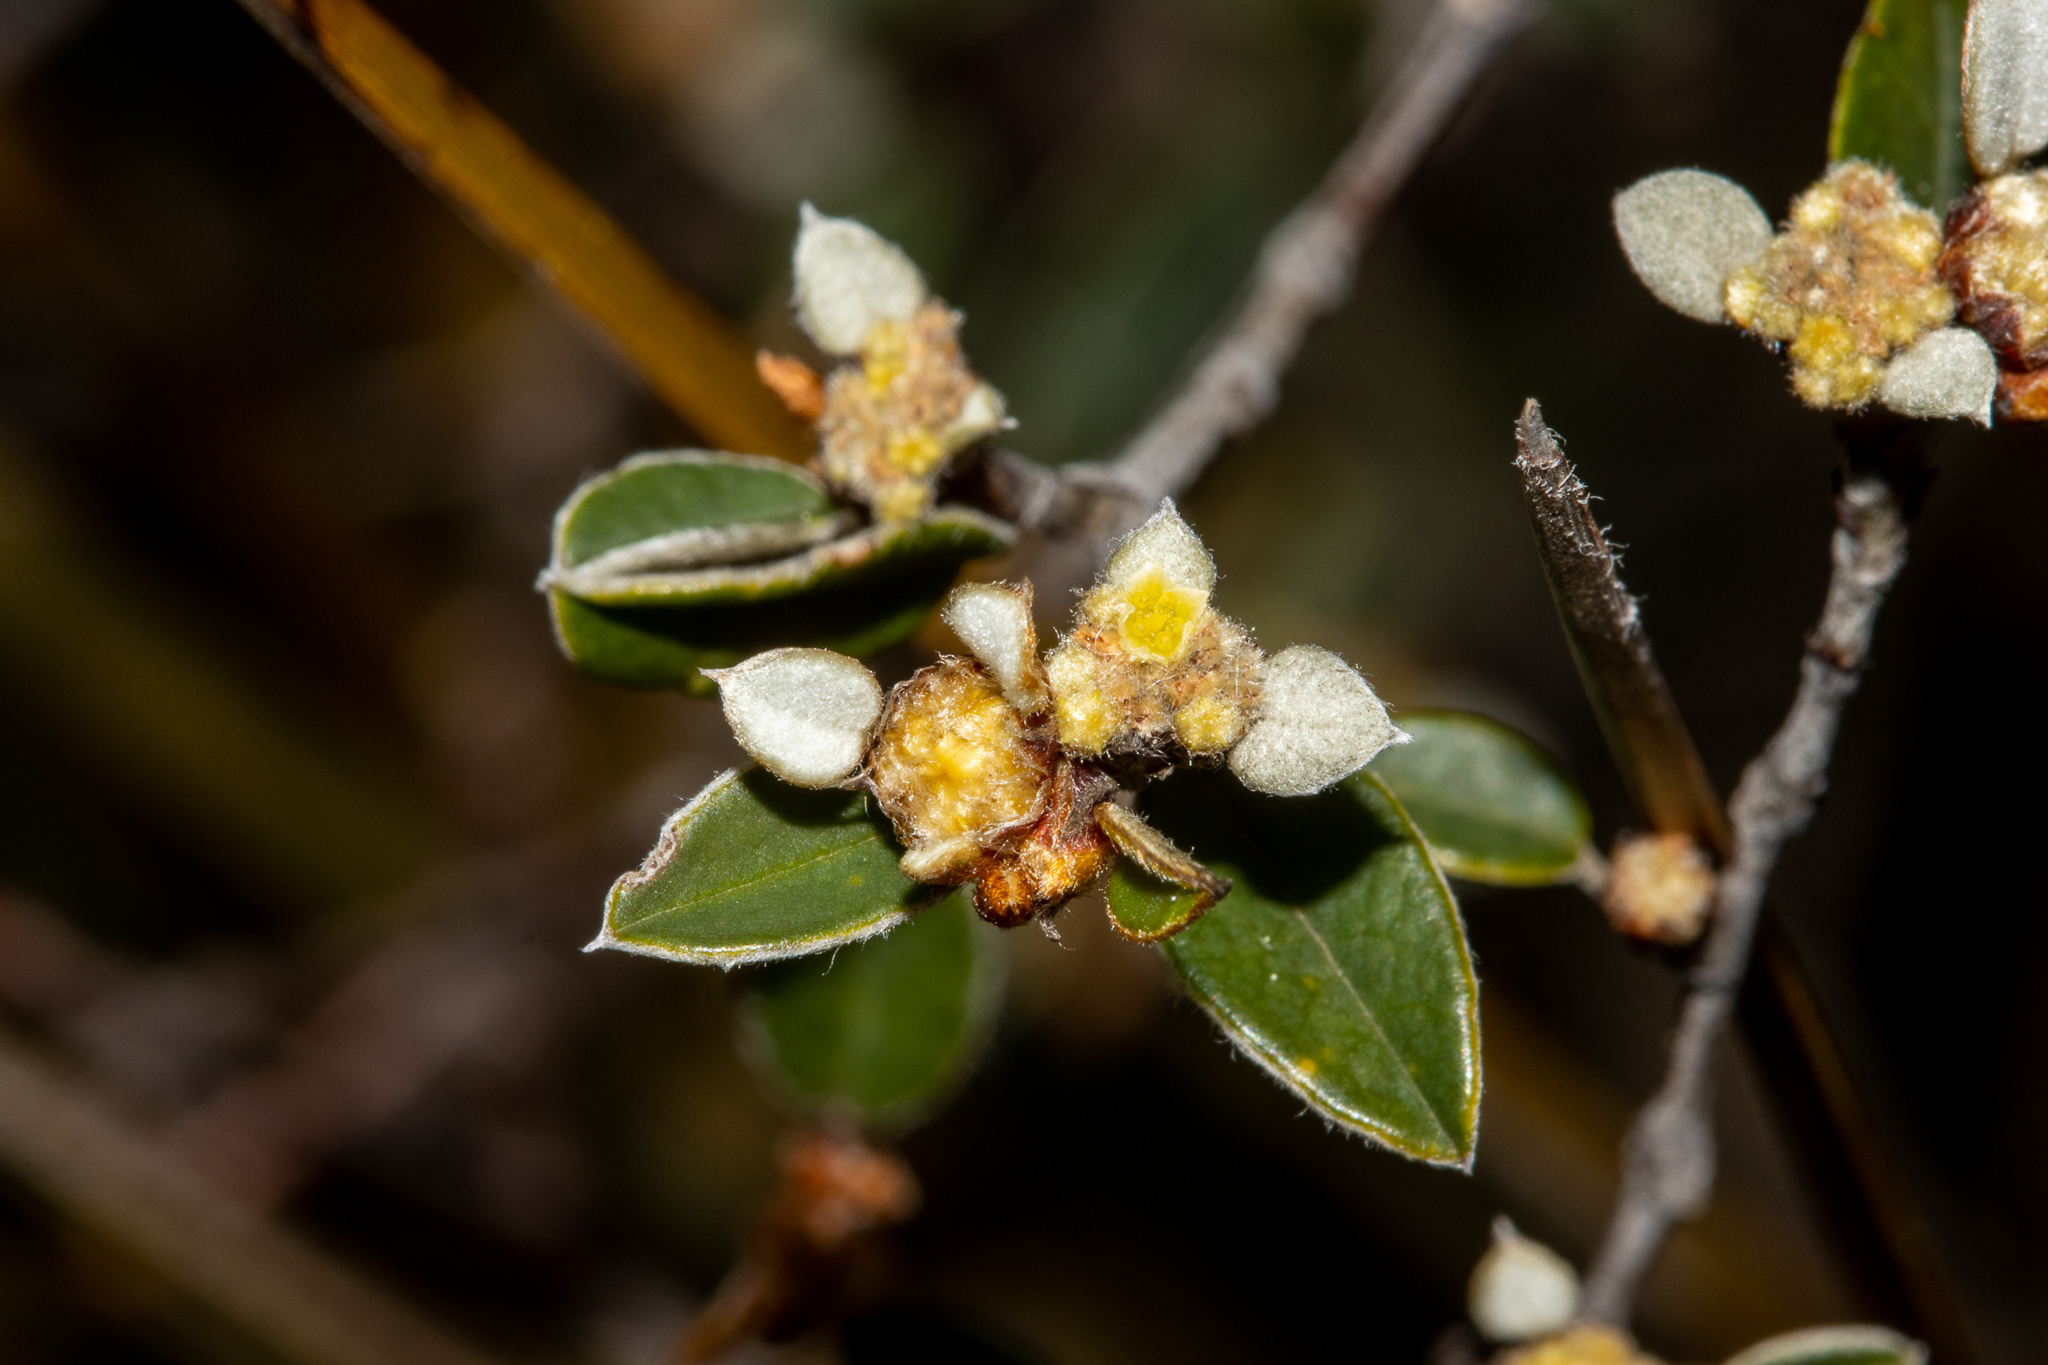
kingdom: Plantae
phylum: Tracheophyta
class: Magnoliopsida
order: Rosales
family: Rhamnaceae
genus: Spyridium
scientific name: Spyridium thymifolium
